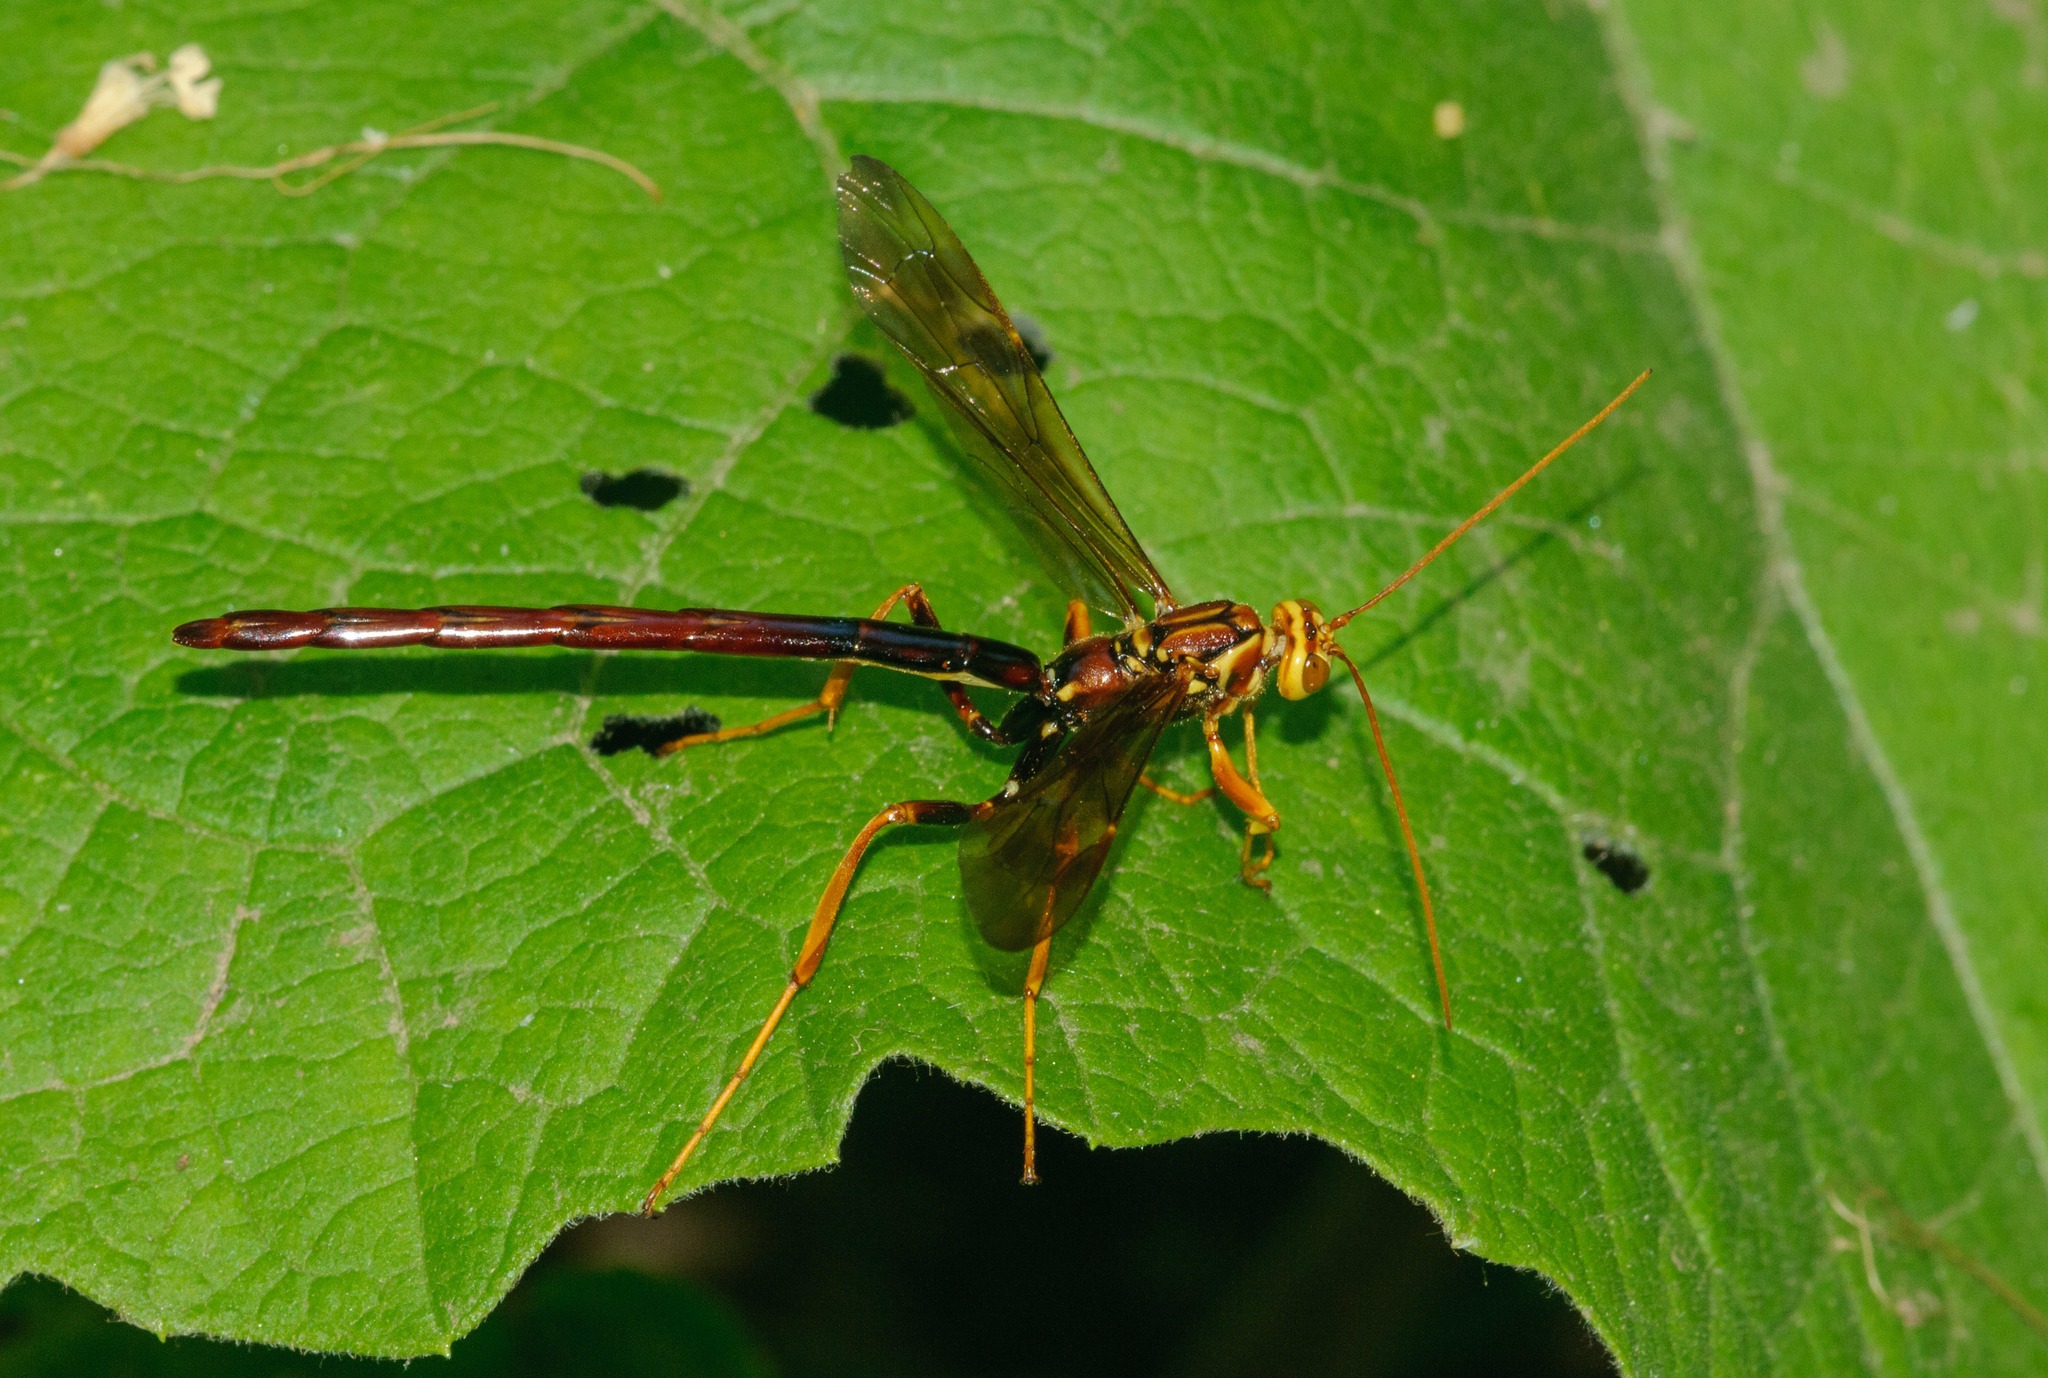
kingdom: Animalia
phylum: Arthropoda
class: Insecta
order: Hymenoptera
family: Ichneumonidae
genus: Megarhyssa
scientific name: Megarhyssa macrura
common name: Long-tailed giant ichneumonid wasp
